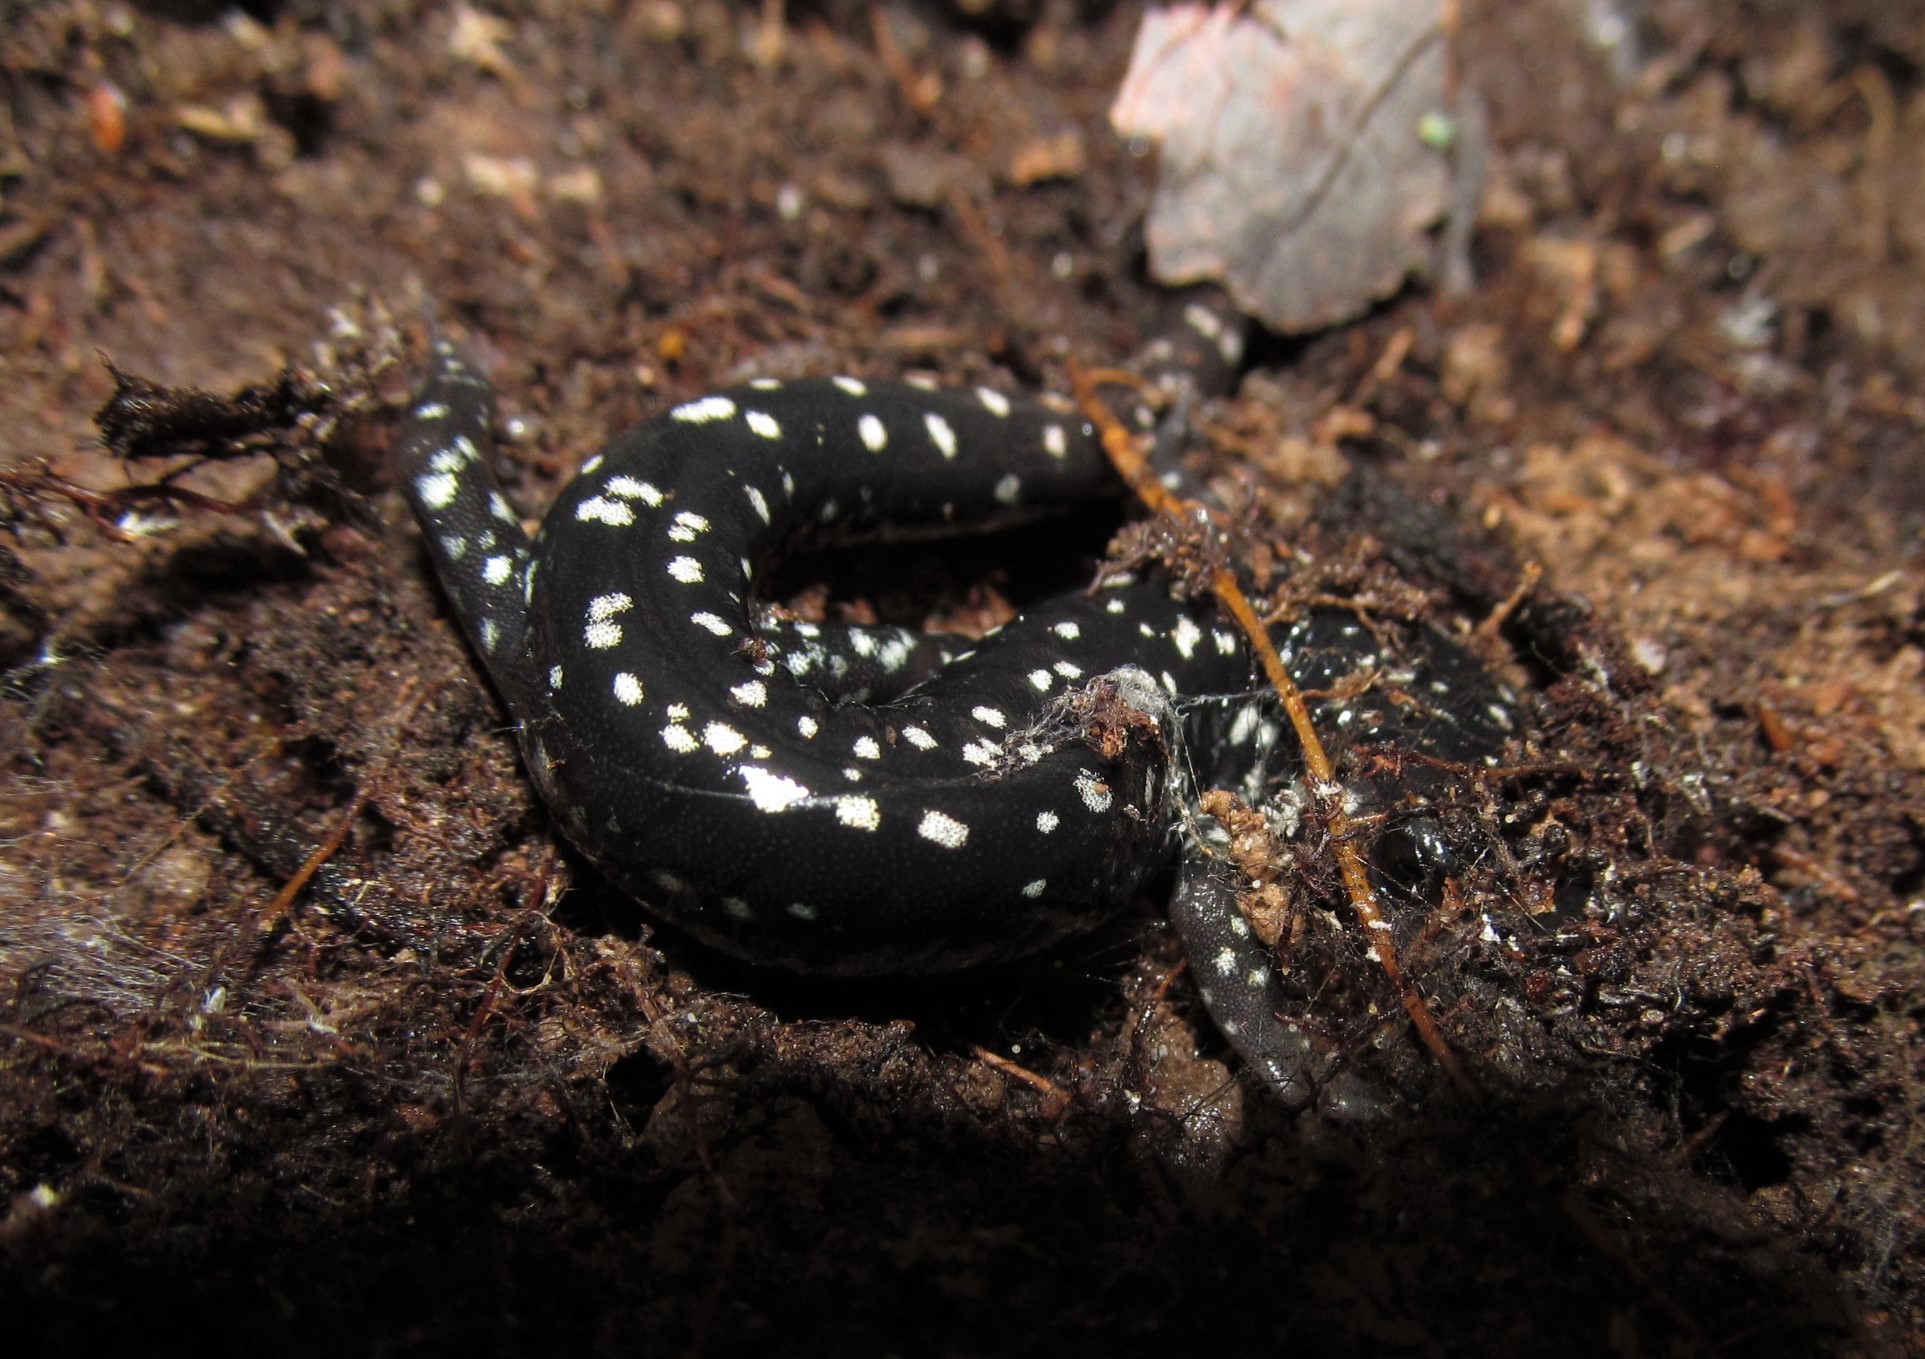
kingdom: Animalia
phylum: Chordata
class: Amphibia
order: Caudata
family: Plethodontidae
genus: Plethodon
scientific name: Plethodon glutinosus
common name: Northern slimy salamander
